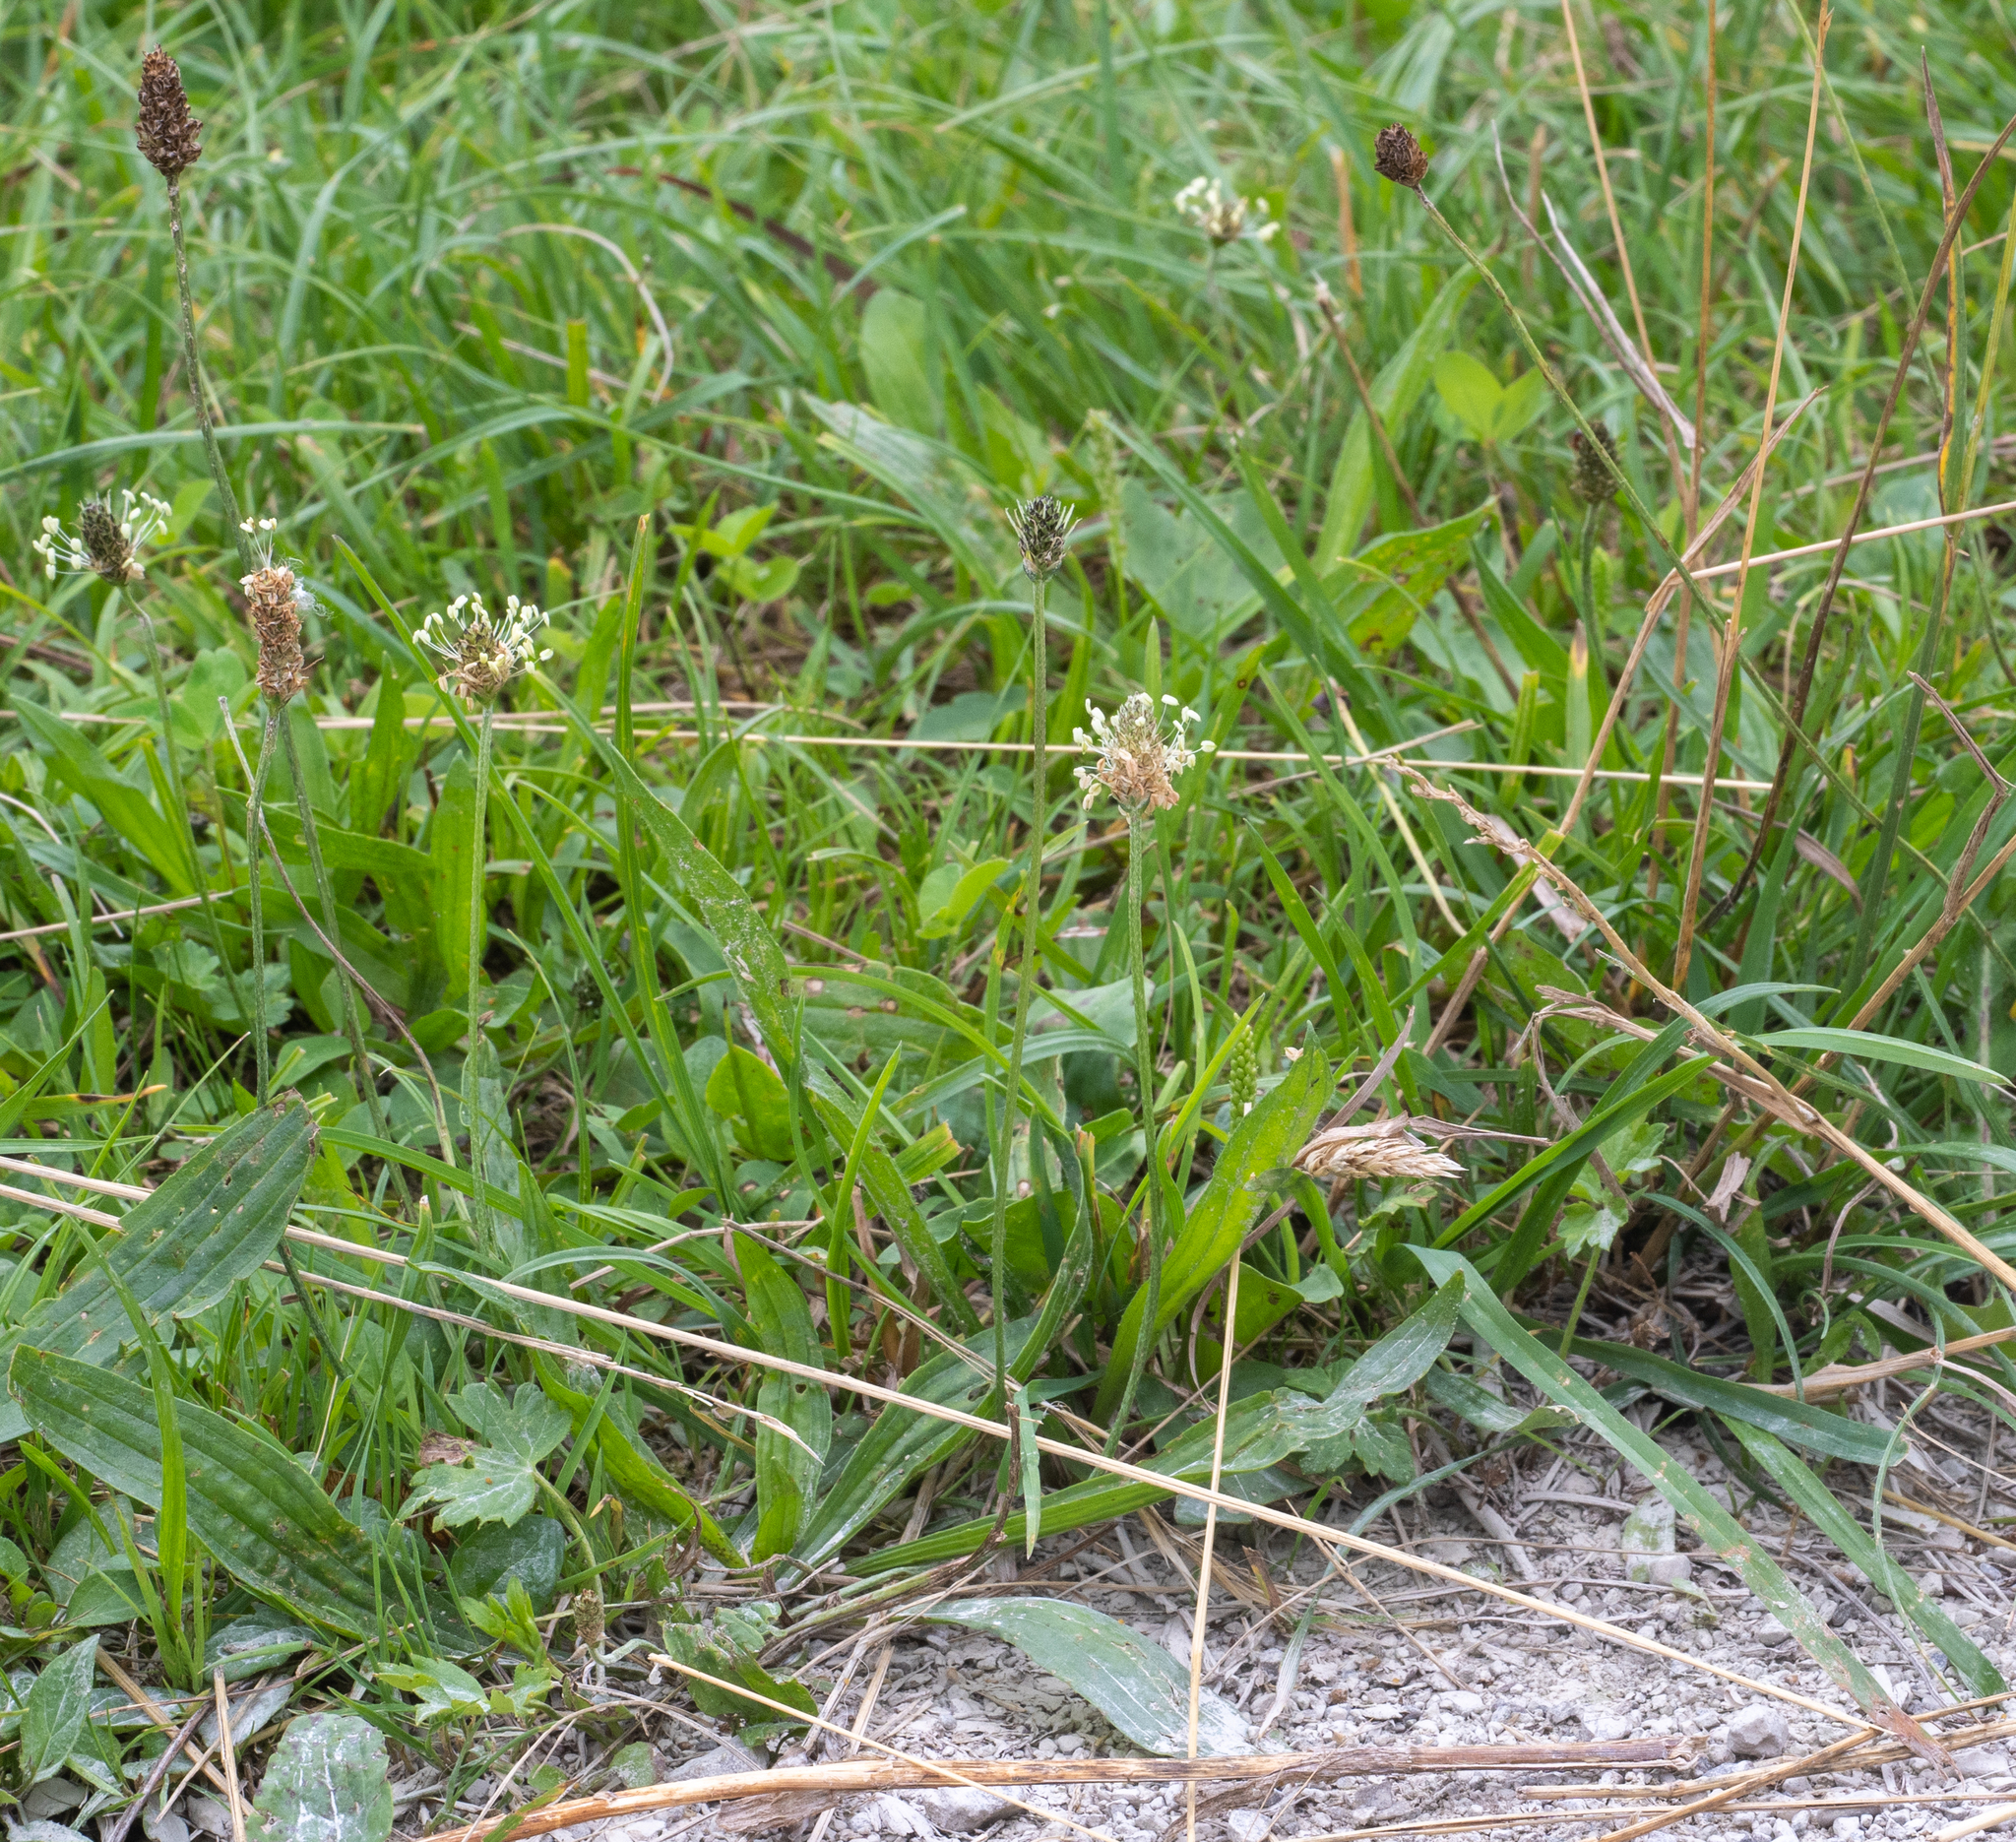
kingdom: Plantae
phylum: Tracheophyta
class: Magnoliopsida
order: Lamiales
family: Plantaginaceae
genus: Plantago
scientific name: Plantago lanceolata
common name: Ribwort plantain
